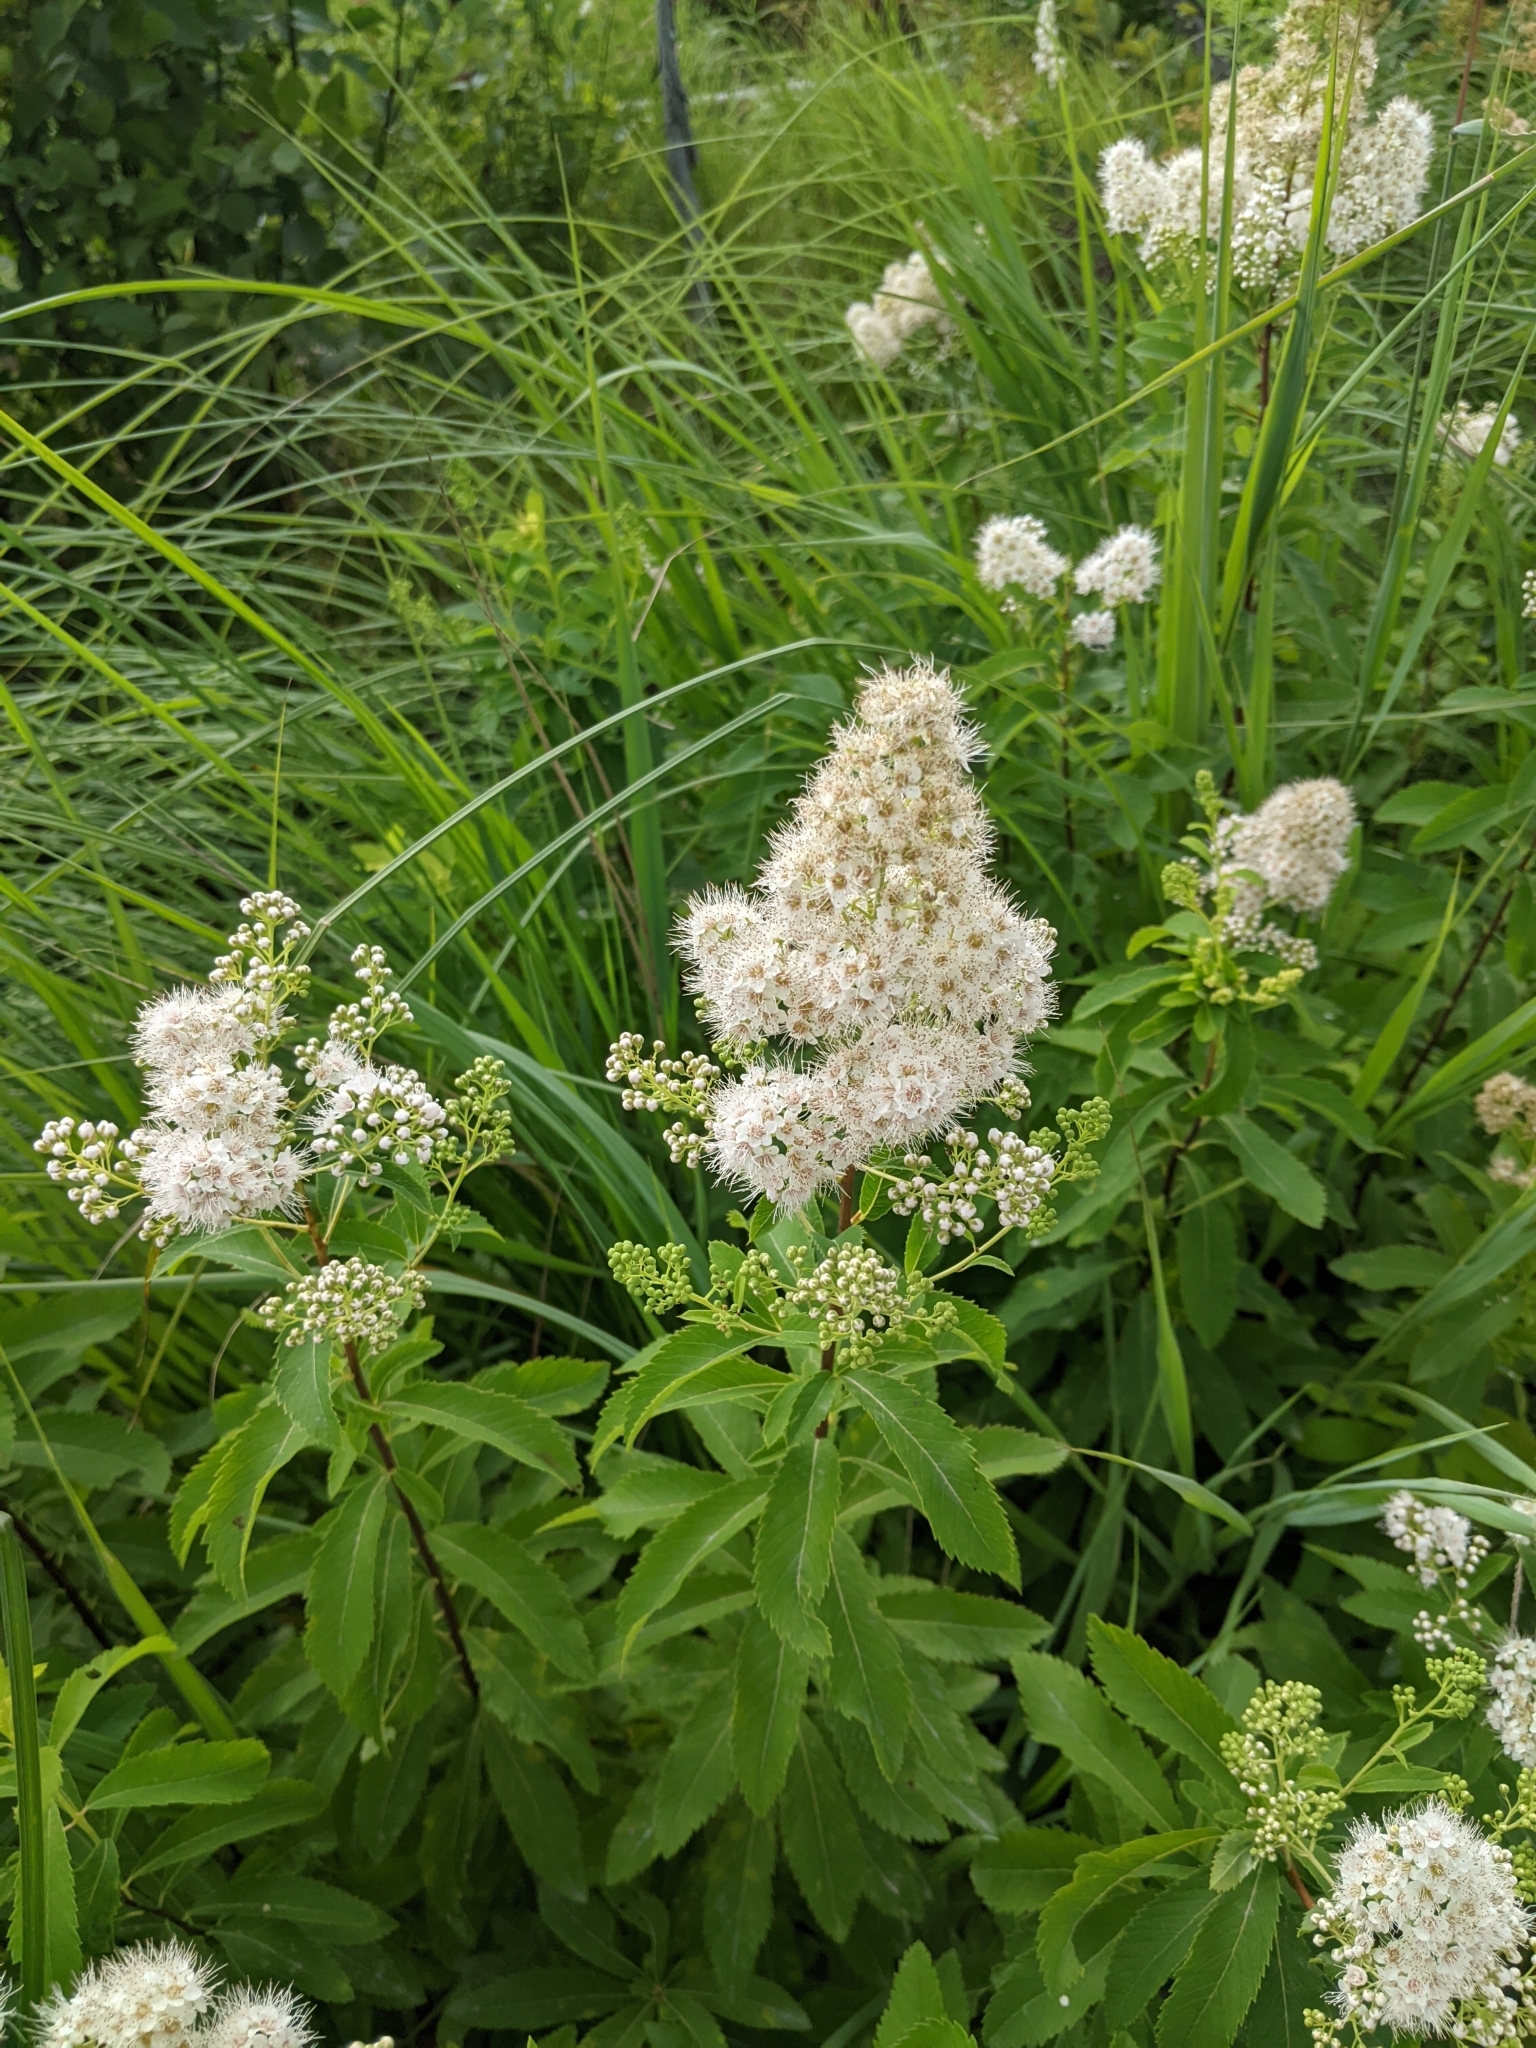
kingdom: Plantae
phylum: Tracheophyta
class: Magnoliopsida
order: Rosales
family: Rosaceae
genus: Spiraea
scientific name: Spiraea alba
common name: Pale bridewort
